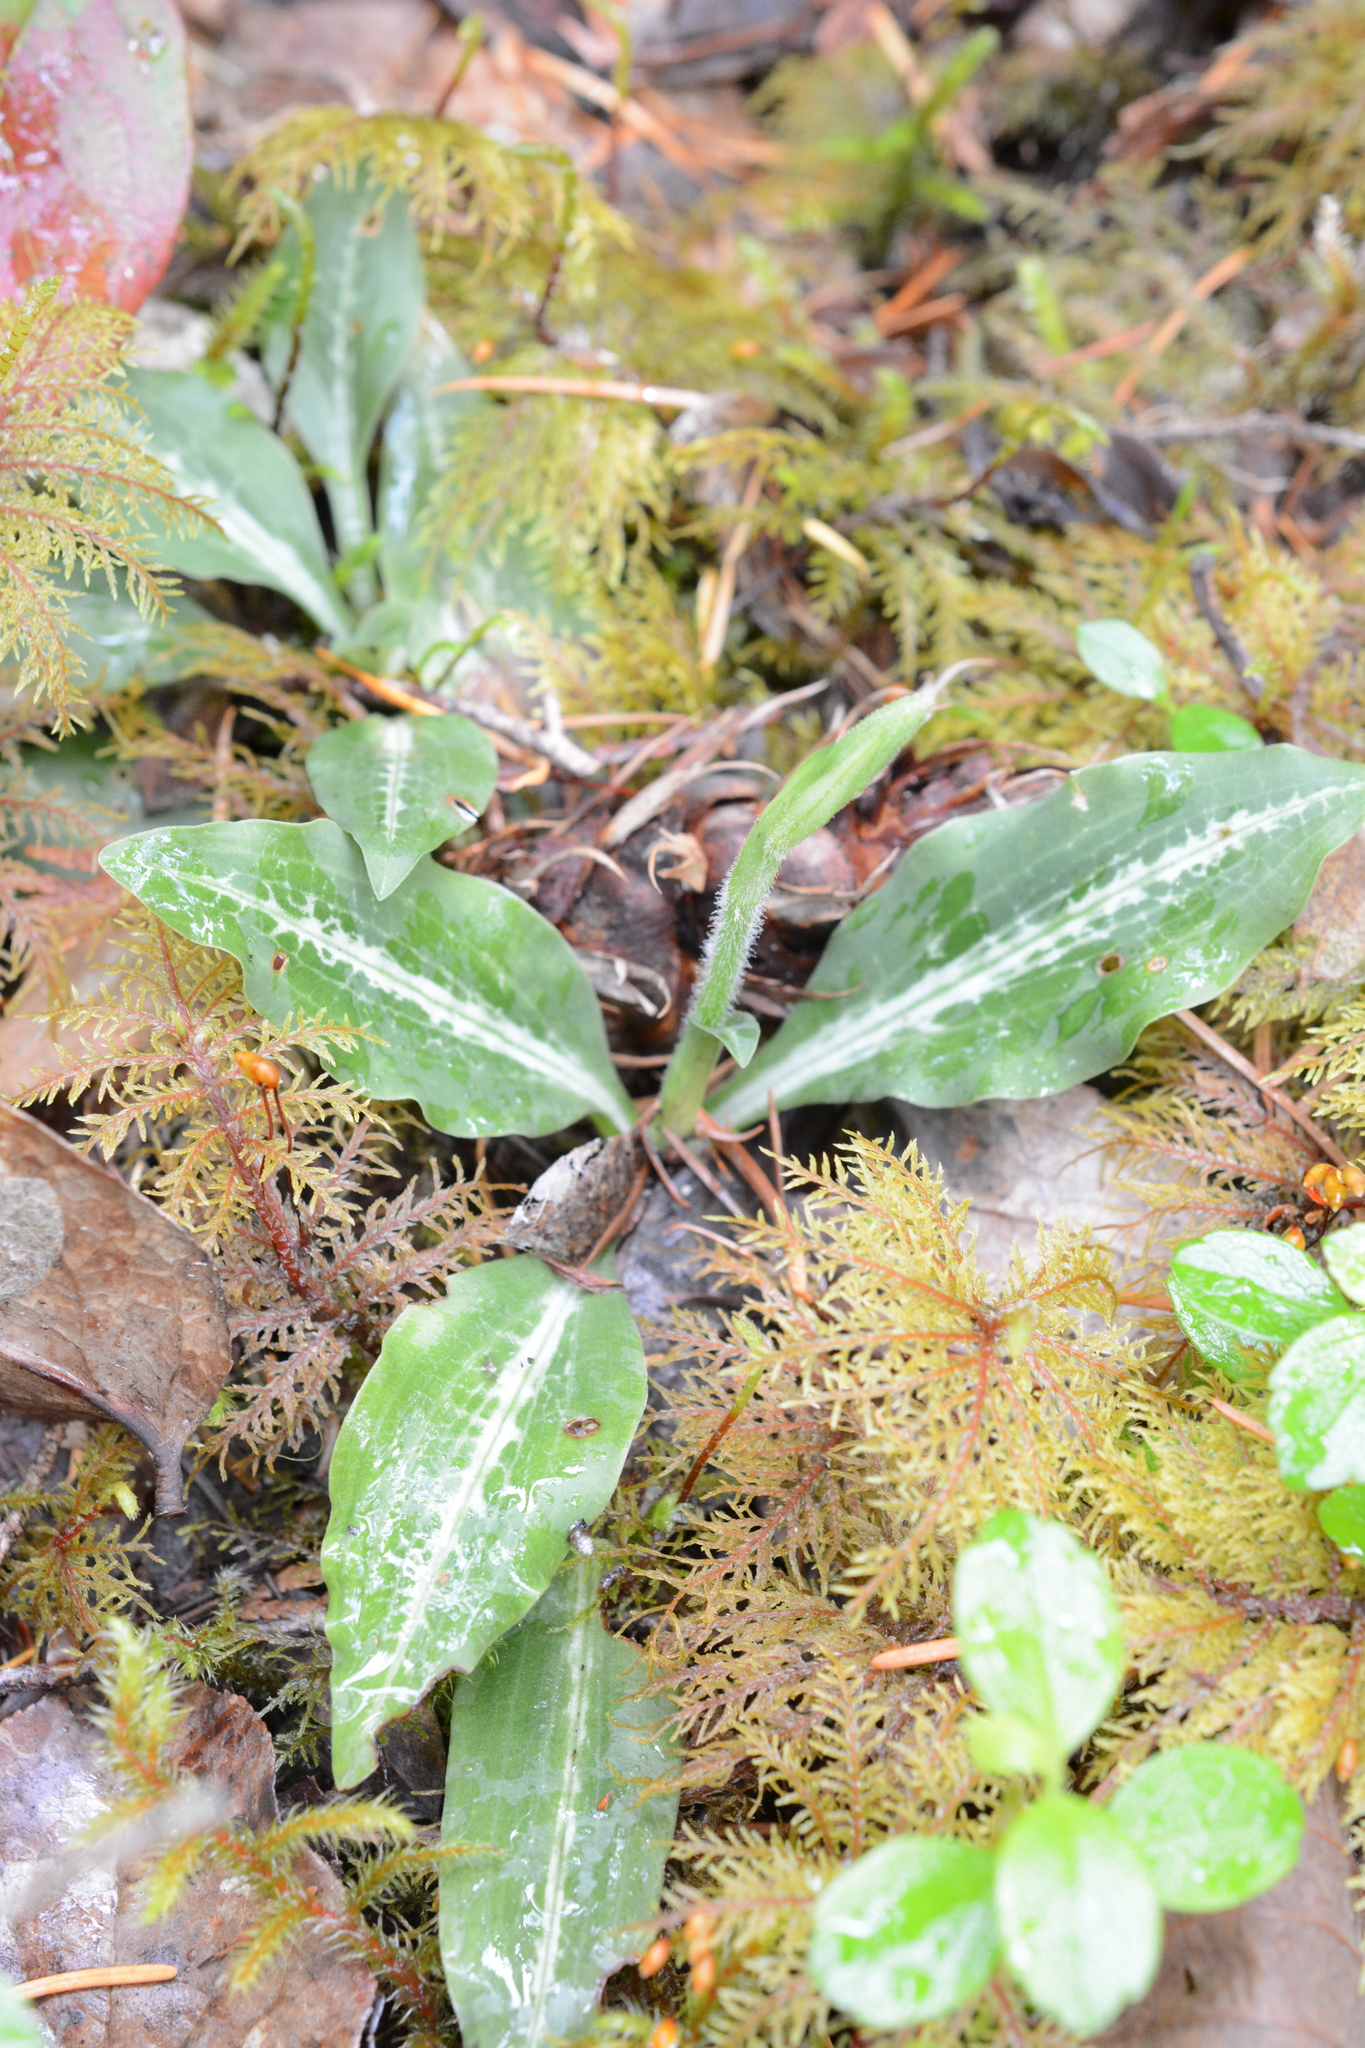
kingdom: Plantae
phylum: Tracheophyta
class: Liliopsida
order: Asparagales
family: Orchidaceae
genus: Goodyera
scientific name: Goodyera oblongifolia
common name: Giant rattlesnake-plantain
